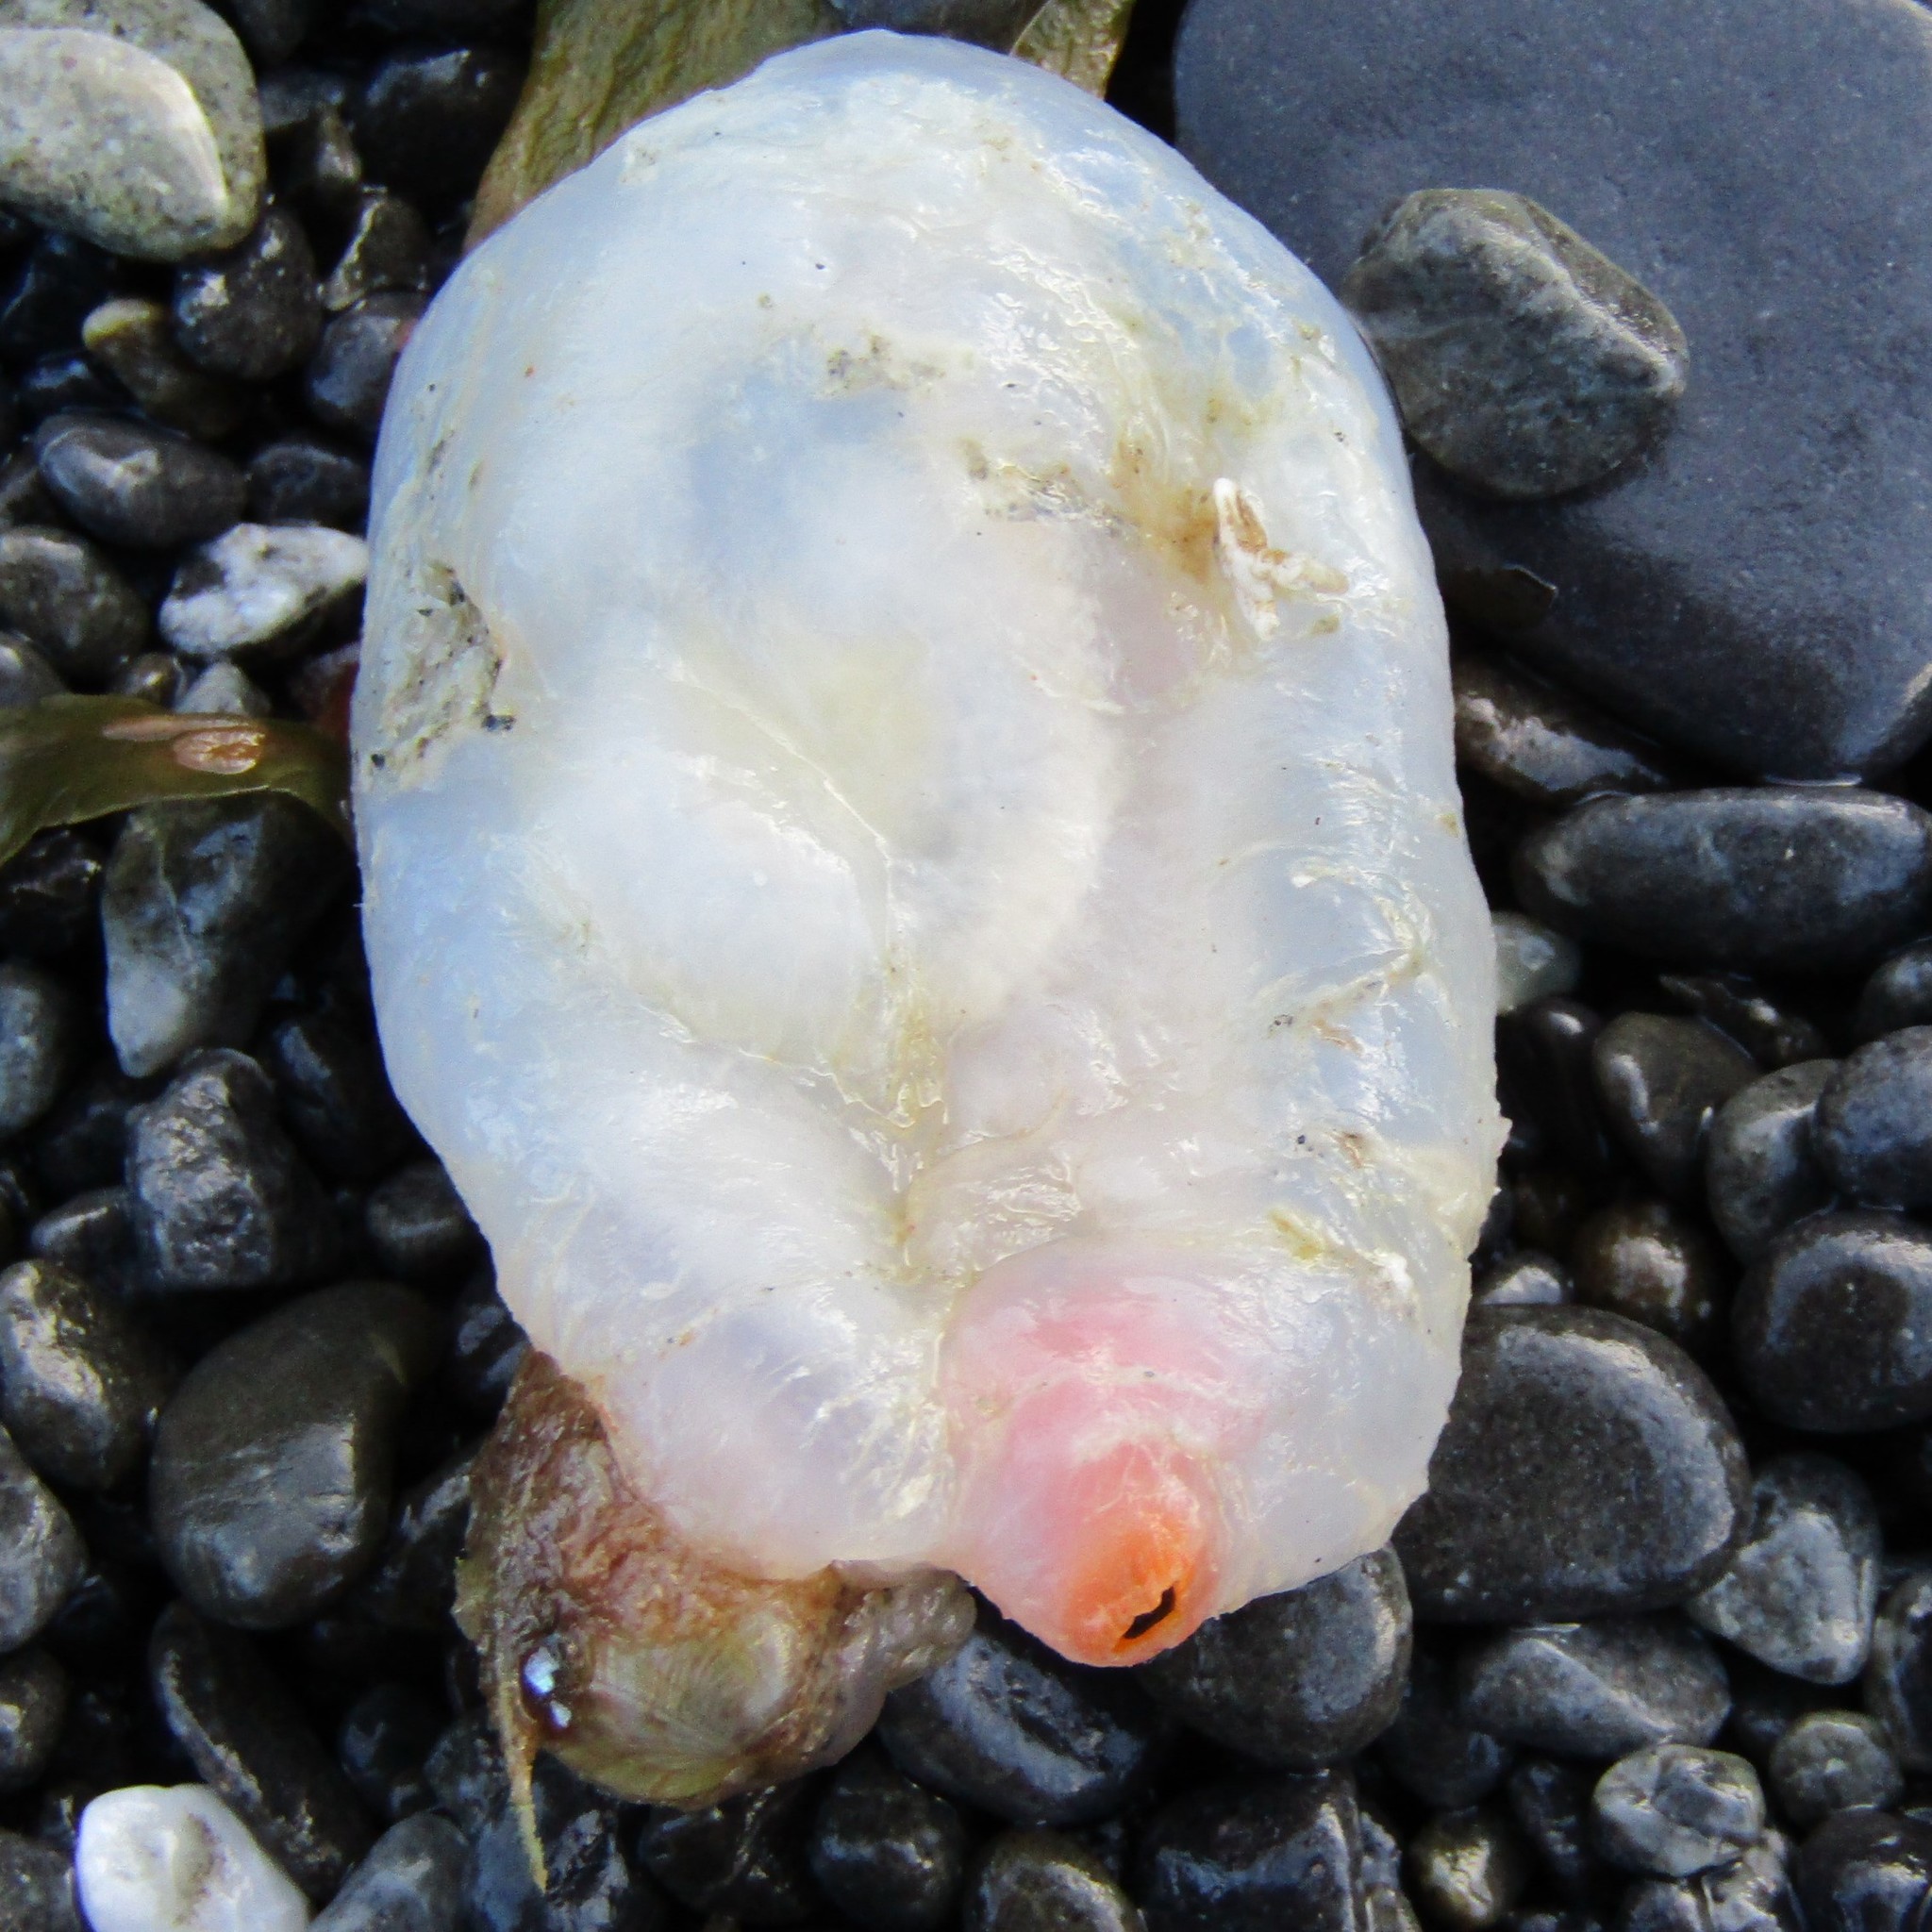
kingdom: Animalia
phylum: Chordata
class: Ascidiacea
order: Phlebobranchia
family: Corellidae
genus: Corella
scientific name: Corella eumyota
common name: Orange-tipped sea squirt
